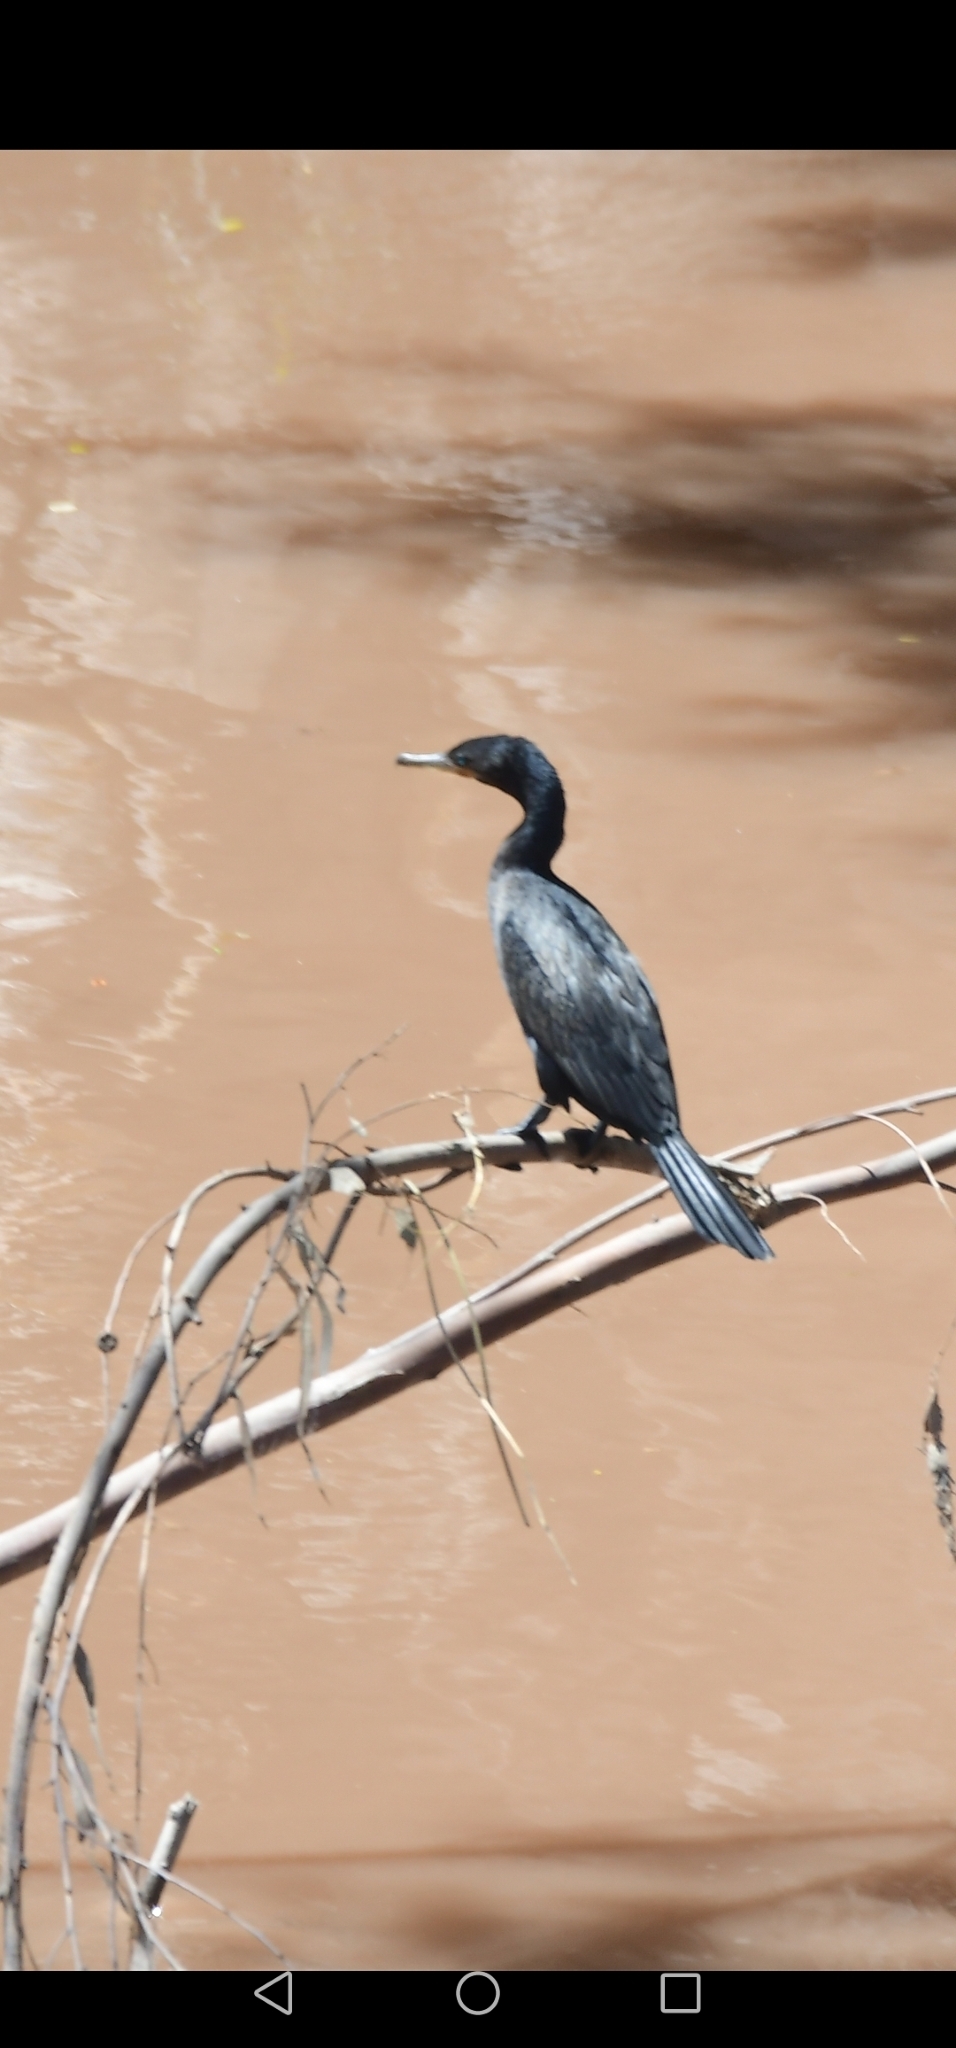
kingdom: Animalia
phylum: Chordata
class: Aves
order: Suliformes
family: Phalacrocoracidae
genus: Phalacrocorax
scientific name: Phalacrocorax brasilianus
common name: Neotropic cormorant
